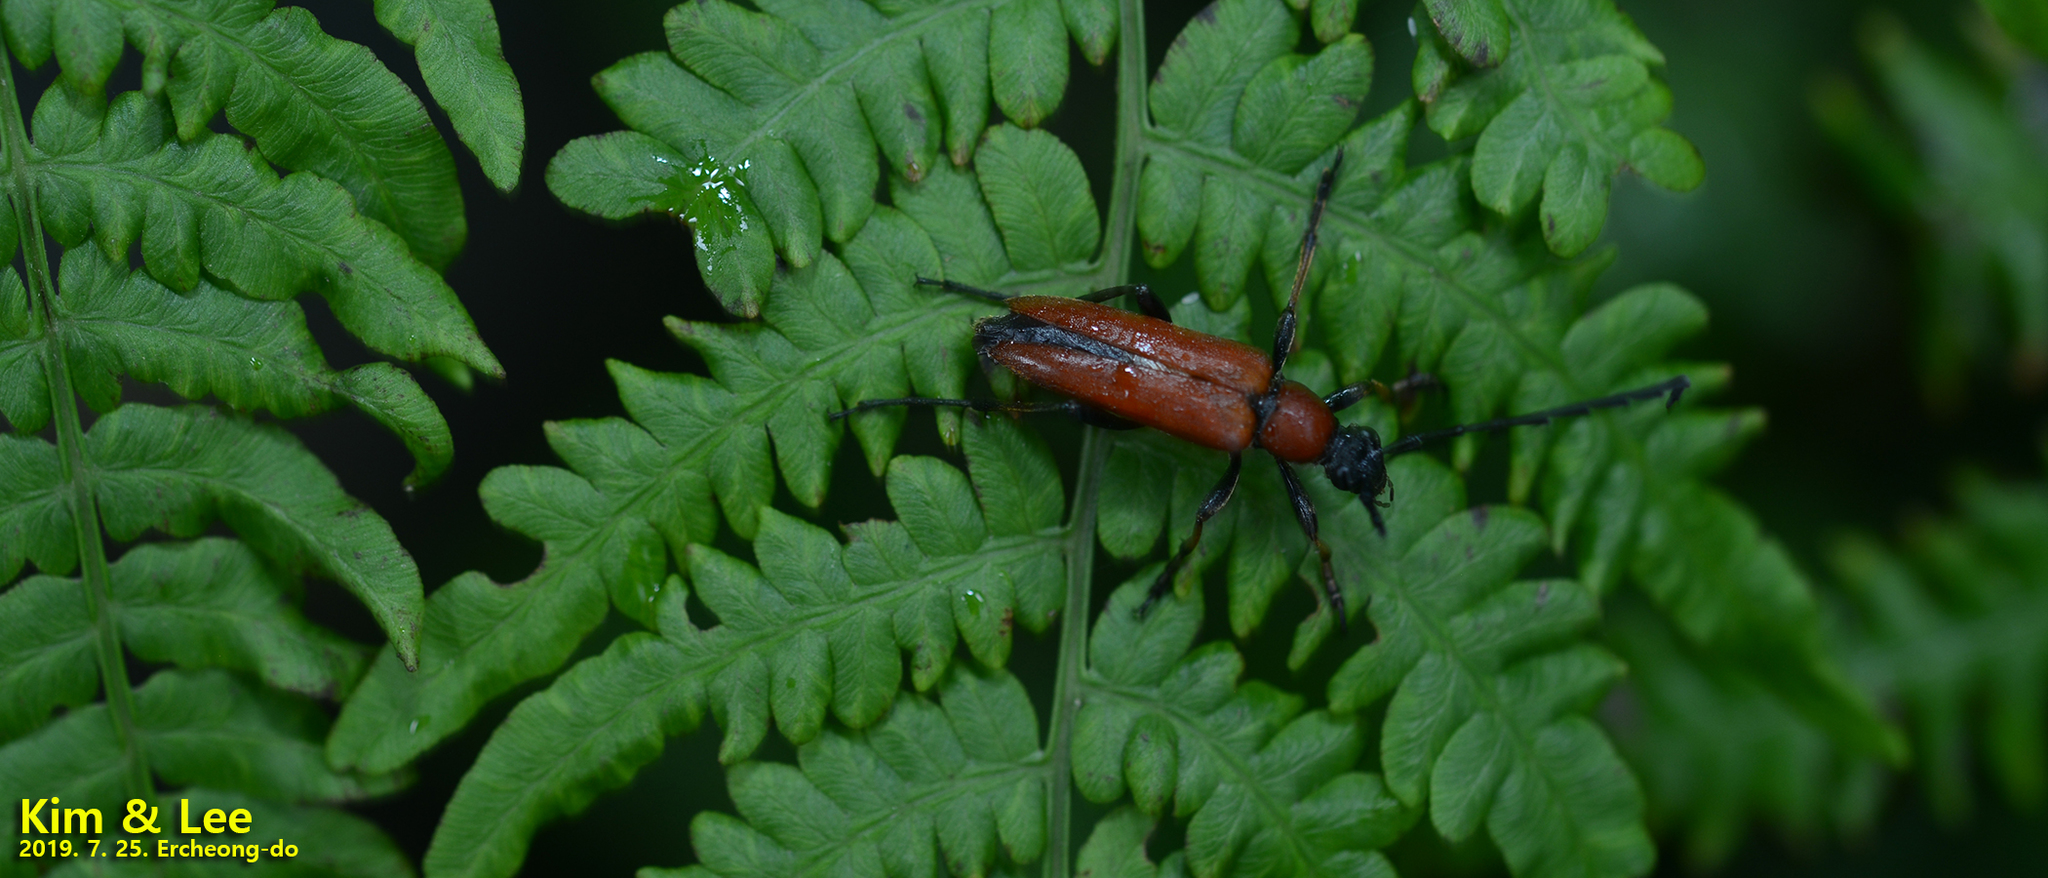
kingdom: Animalia
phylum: Arthropoda
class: Insecta
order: Coleoptera
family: Cerambycidae
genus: Stictoleptura
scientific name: Stictoleptura dichroa
